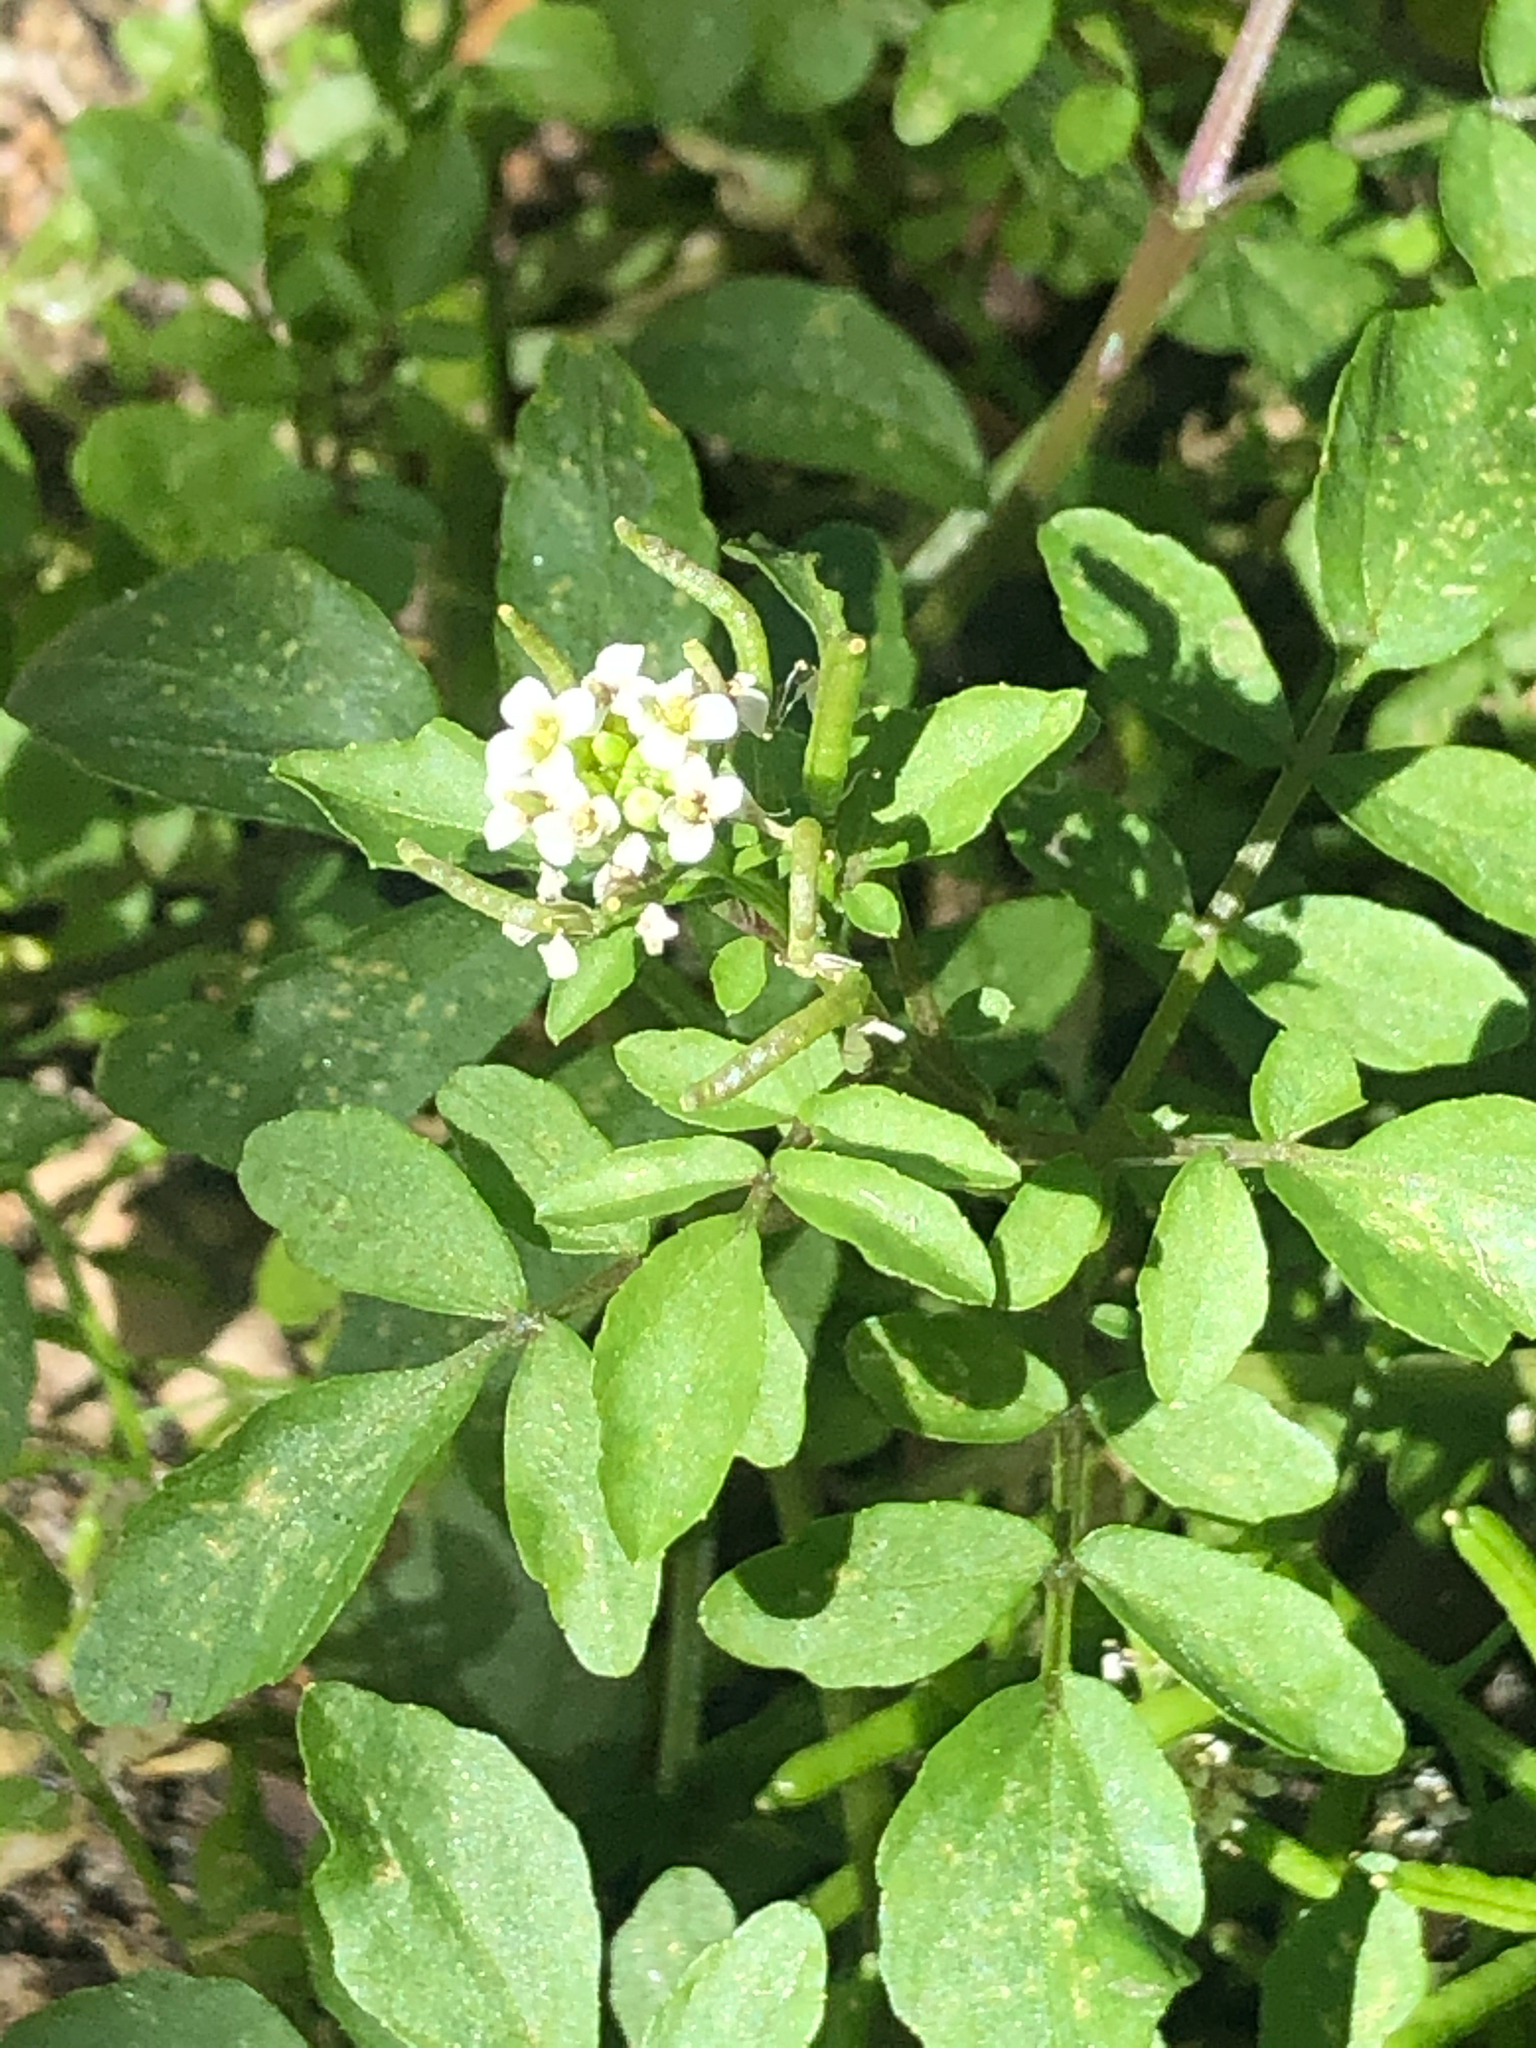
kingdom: Plantae
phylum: Tracheophyta
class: Magnoliopsida
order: Brassicales
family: Brassicaceae
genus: Nasturtium
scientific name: Nasturtium officinale
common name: Watercress
